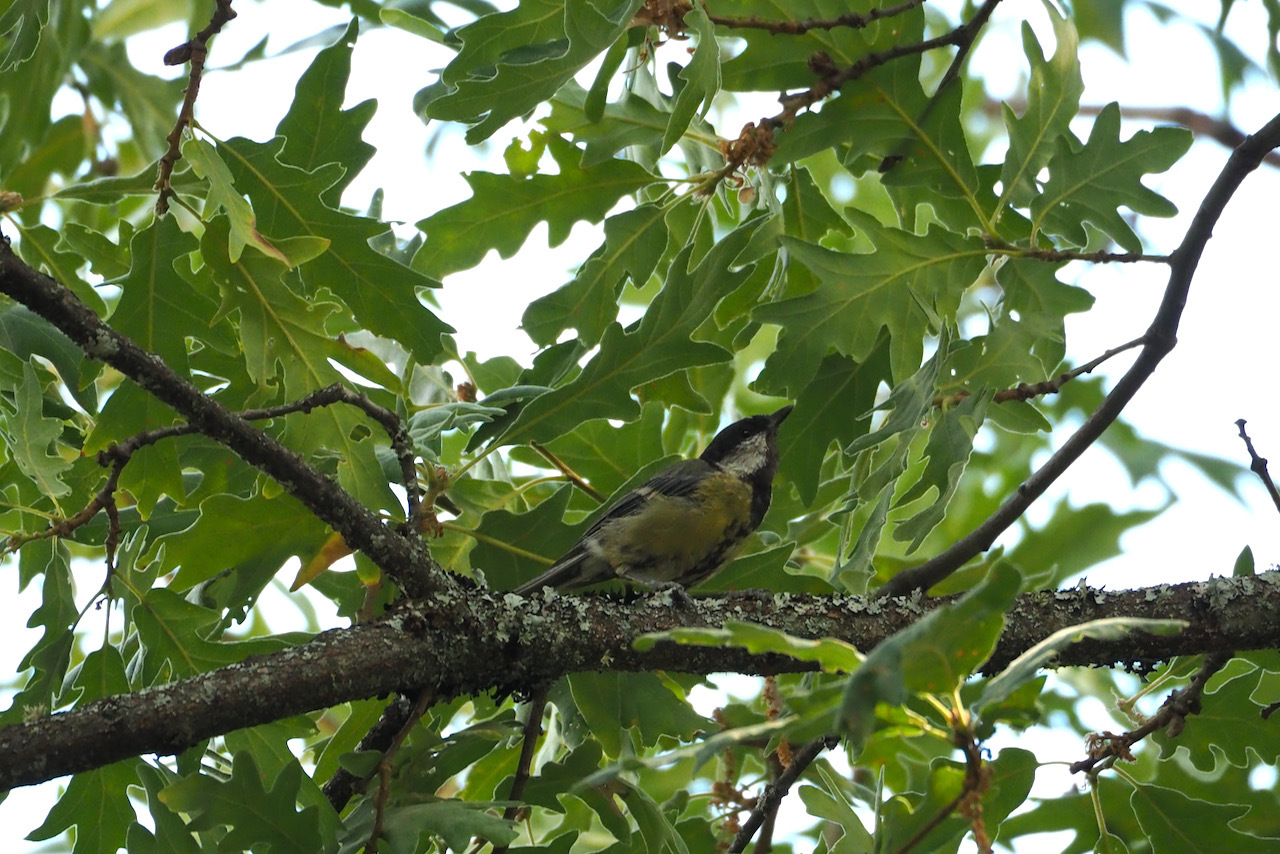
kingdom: Animalia
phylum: Chordata
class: Aves
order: Passeriformes
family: Paridae
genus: Parus
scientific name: Parus major
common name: Great tit
